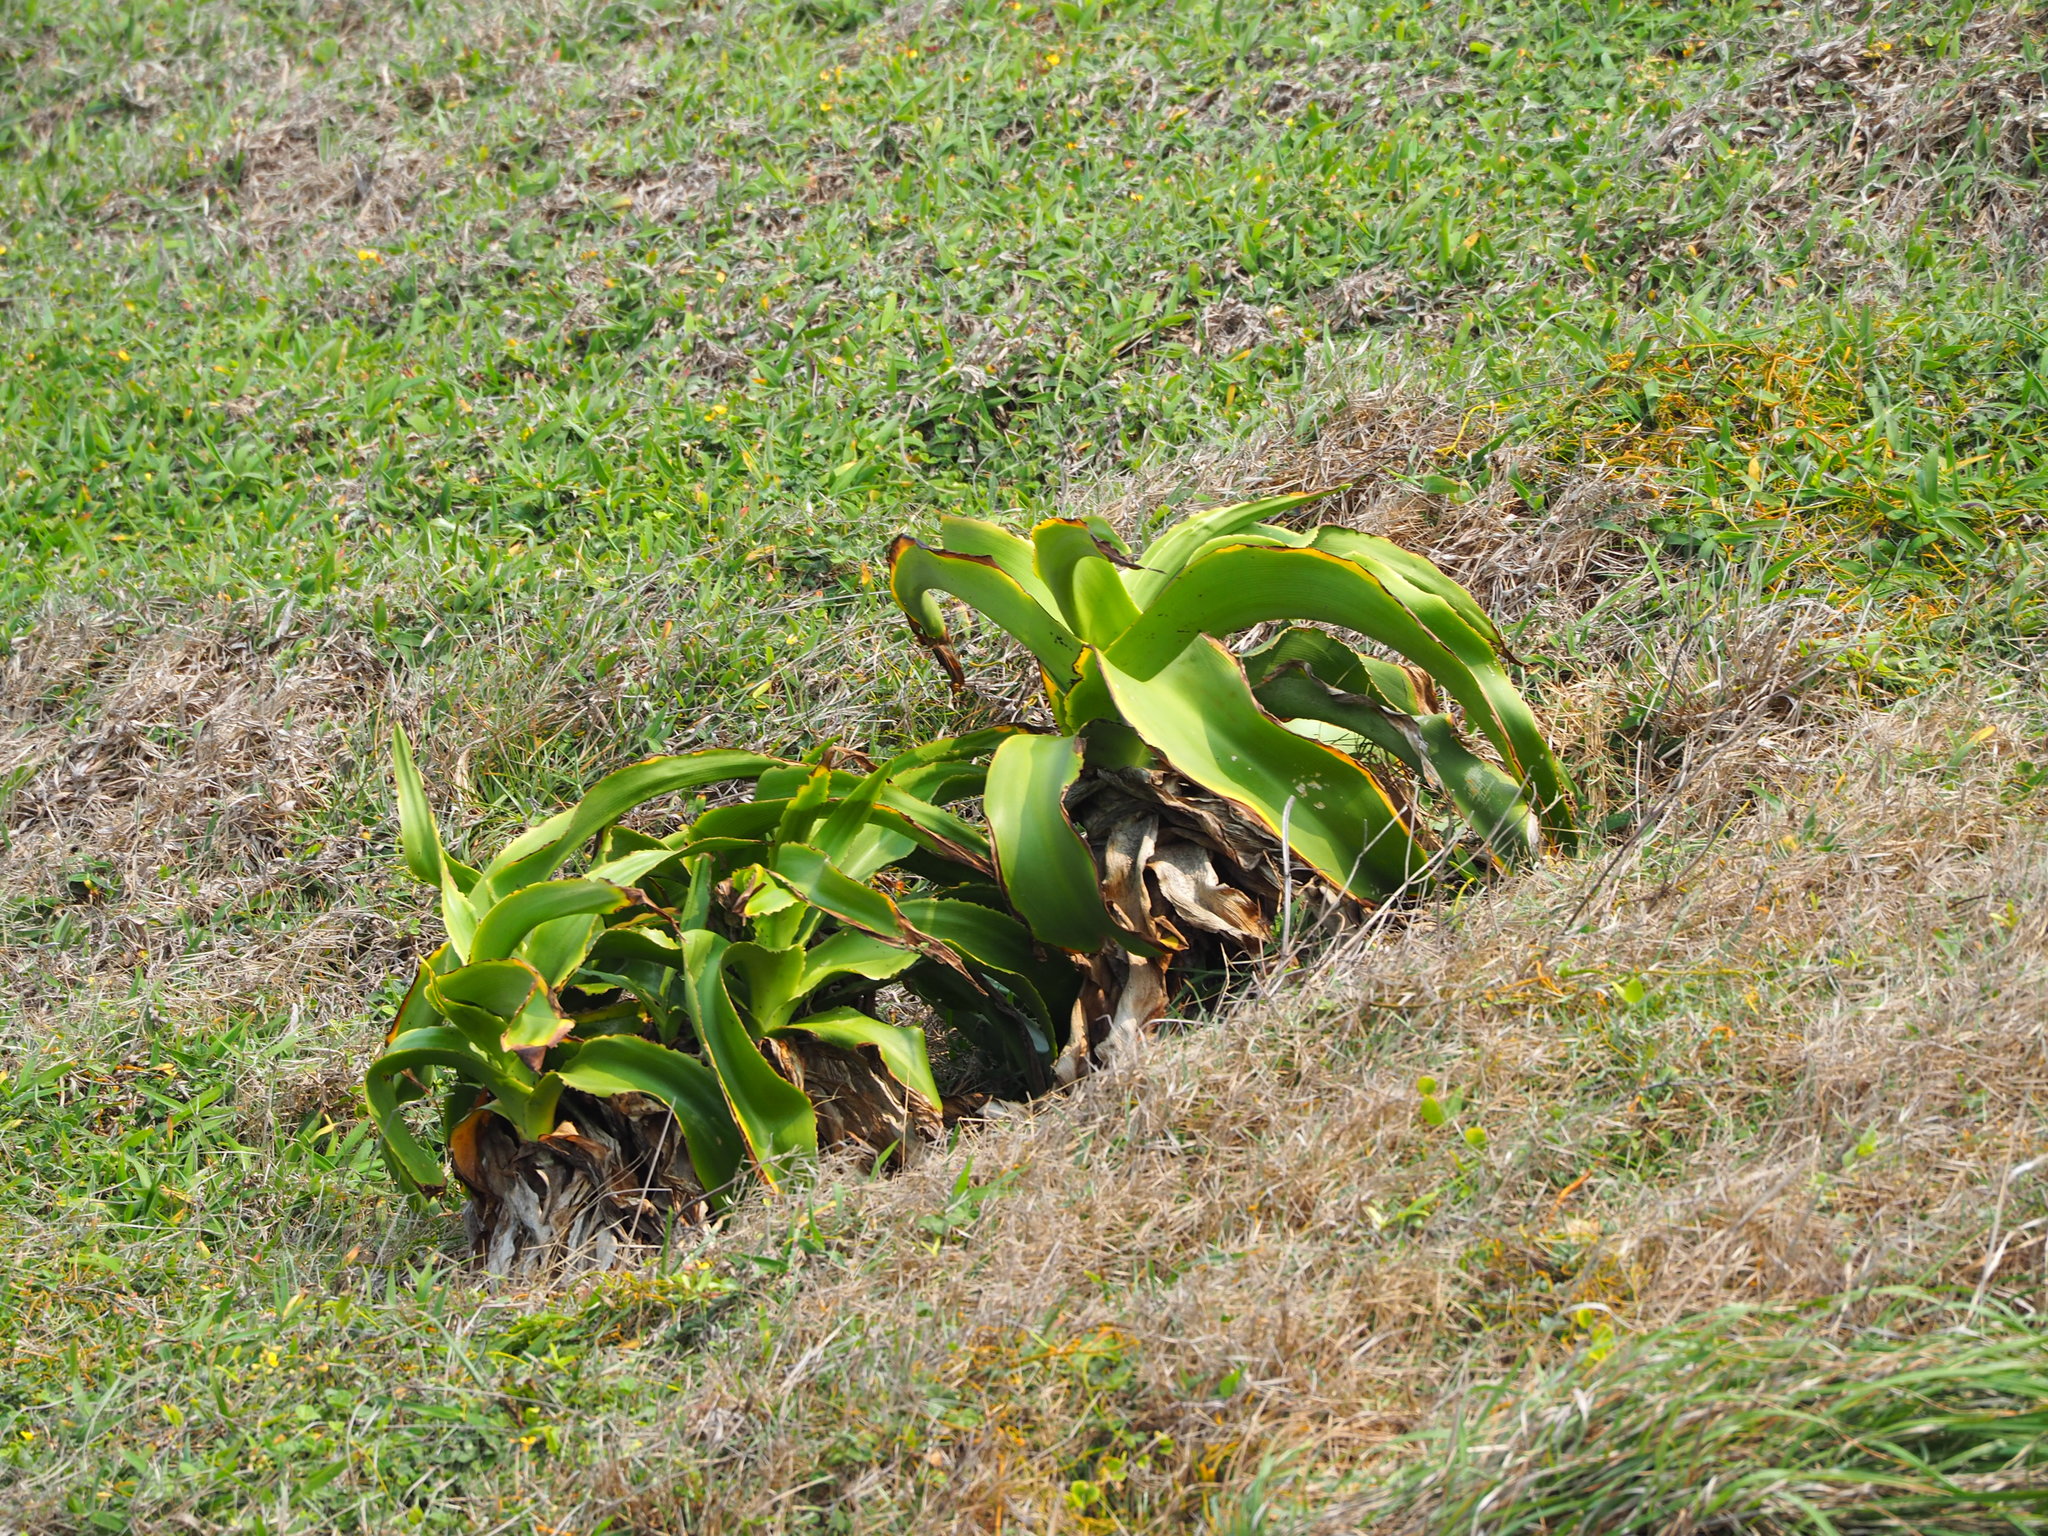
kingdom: Plantae
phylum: Tracheophyta
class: Liliopsida
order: Asparagales
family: Amaryllidaceae
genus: Crinum
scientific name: Crinum asiaticum
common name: Poisonbulb
